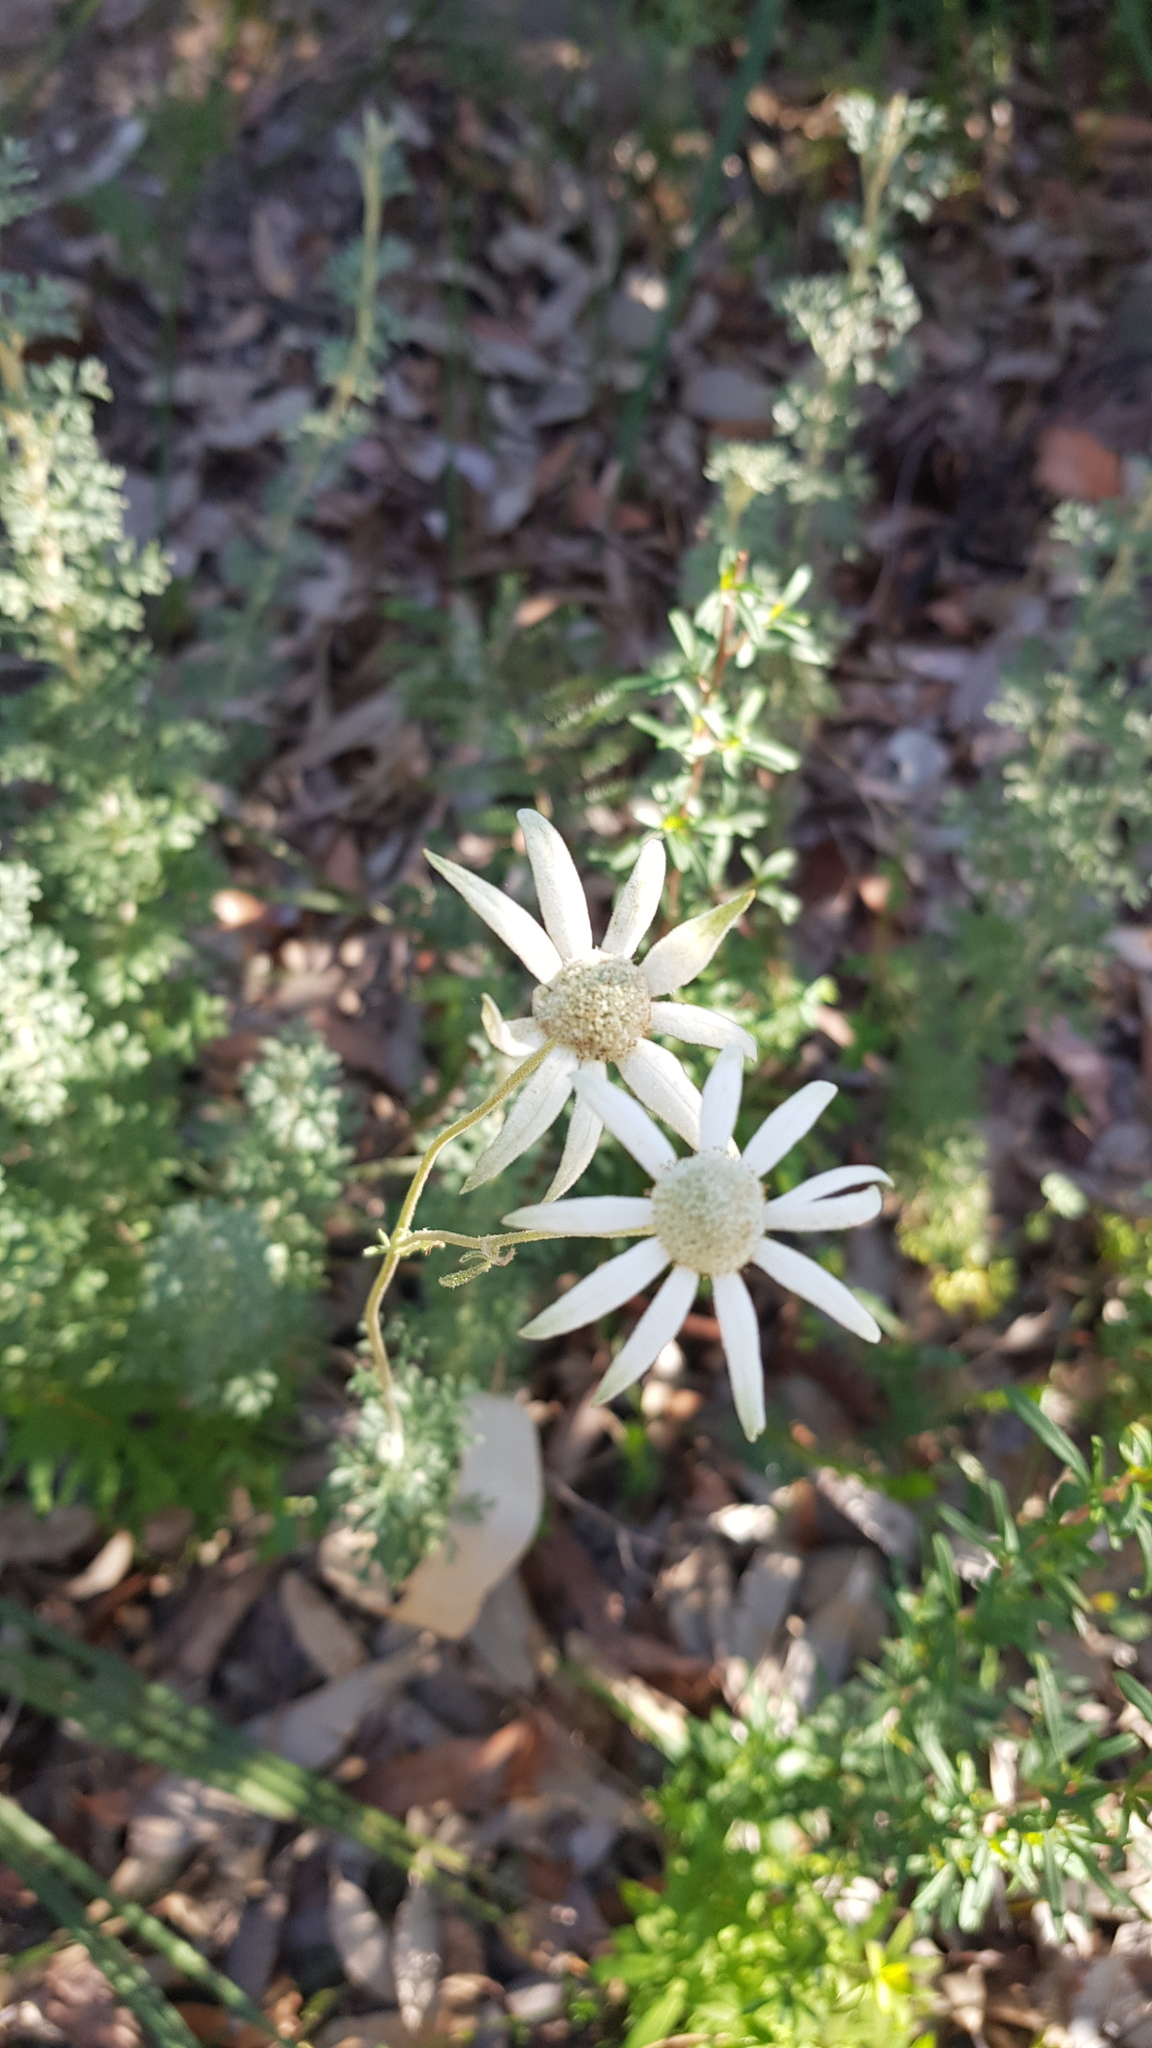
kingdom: Plantae
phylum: Tracheophyta
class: Magnoliopsida
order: Apiales
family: Apiaceae
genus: Actinotus
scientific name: Actinotus helianthi
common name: Flannel-flower
